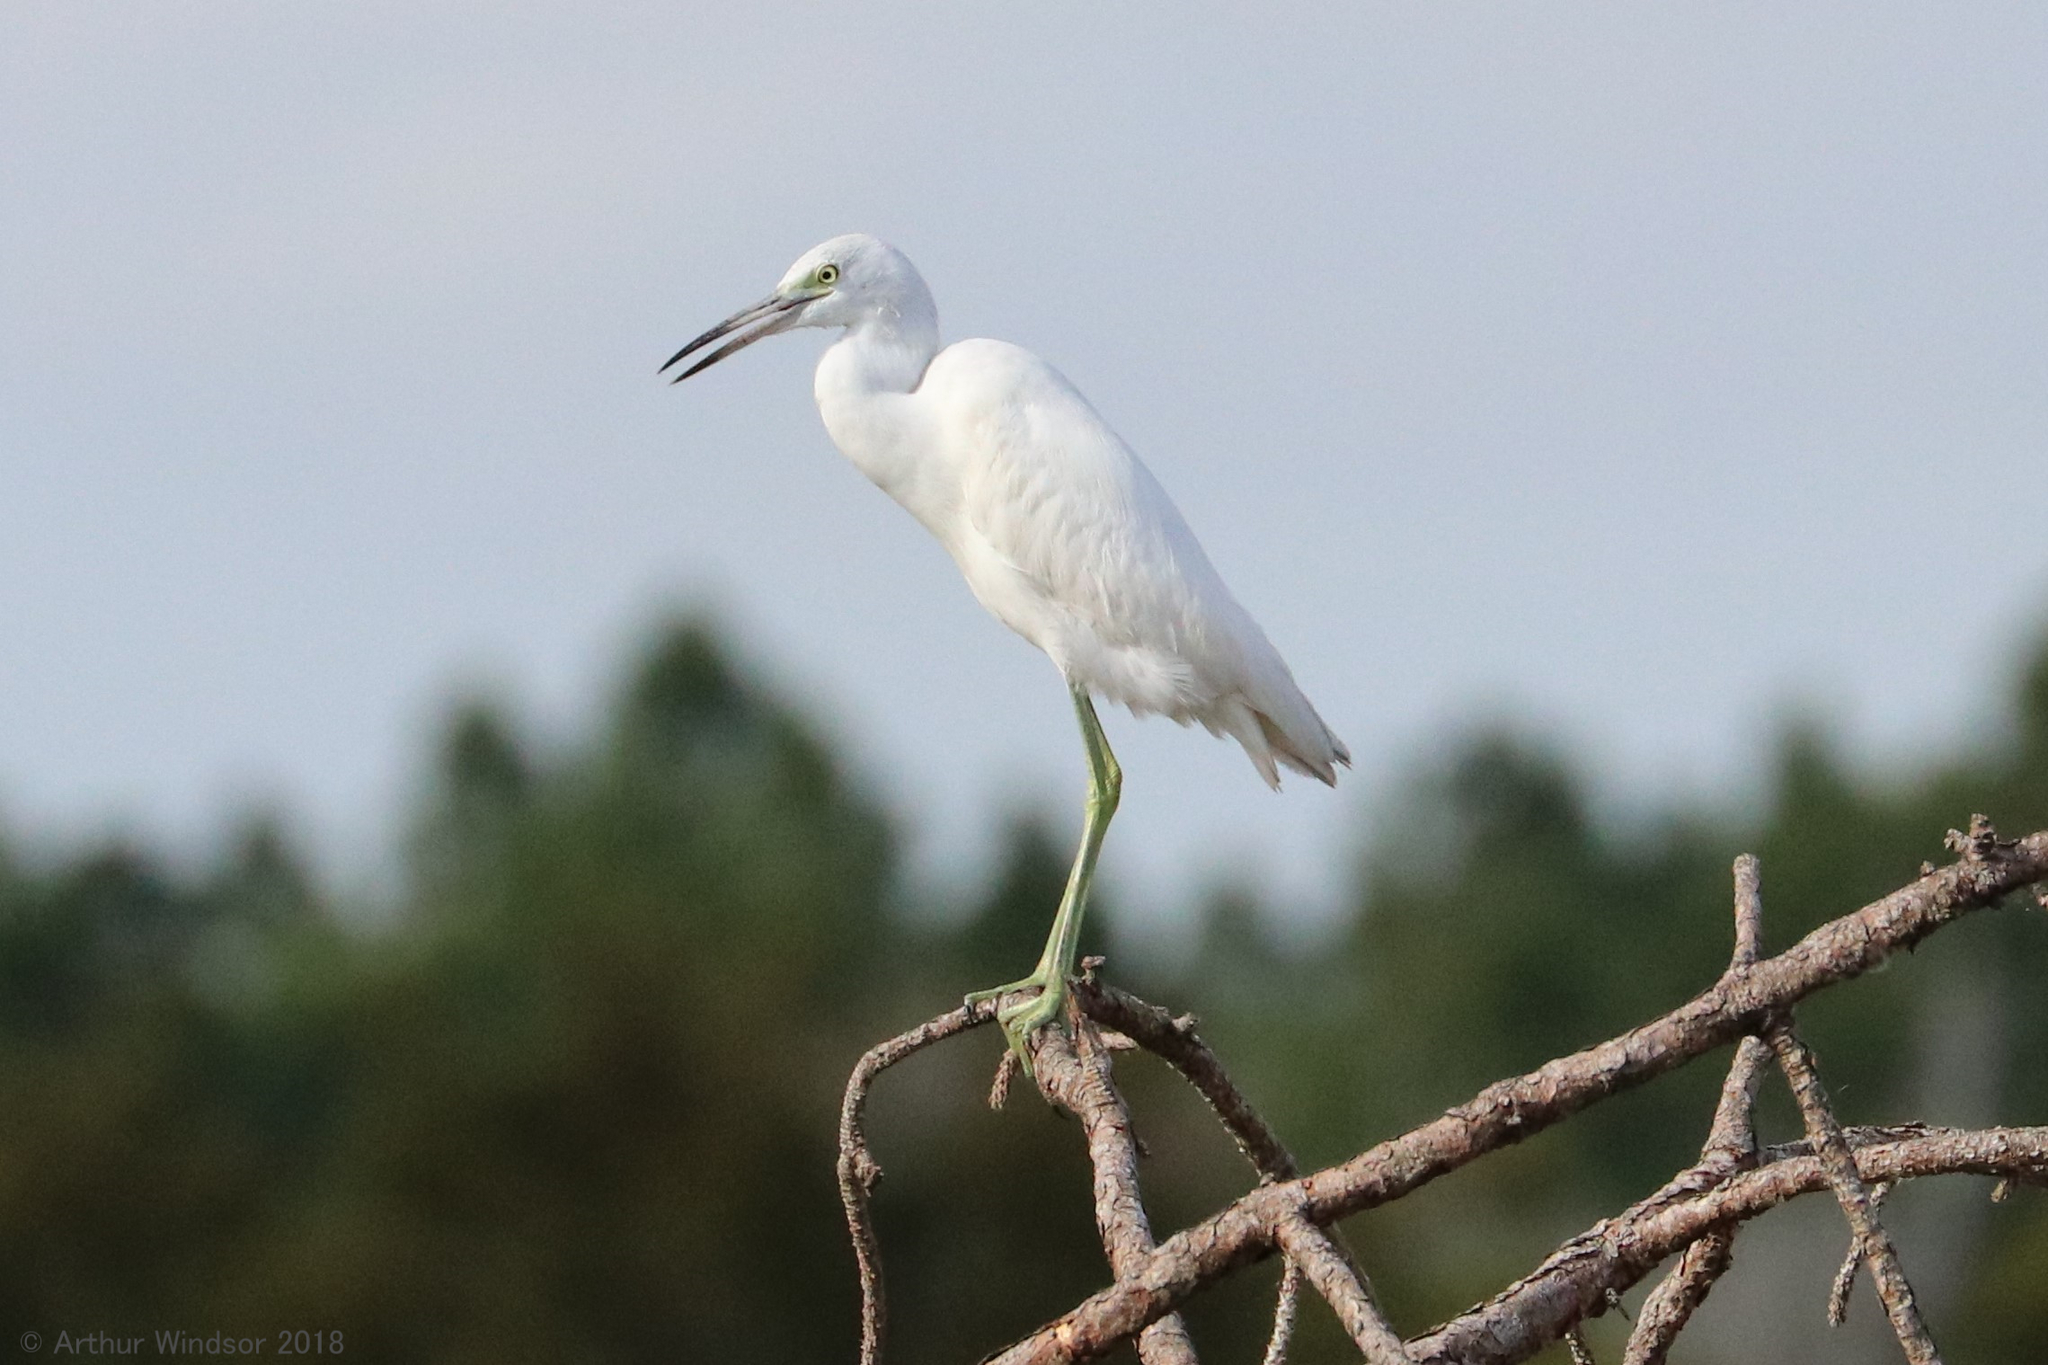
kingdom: Animalia
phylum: Chordata
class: Aves
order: Pelecaniformes
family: Ardeidae
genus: Egretta
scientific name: Egretta caerulea
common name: Little blue heron
